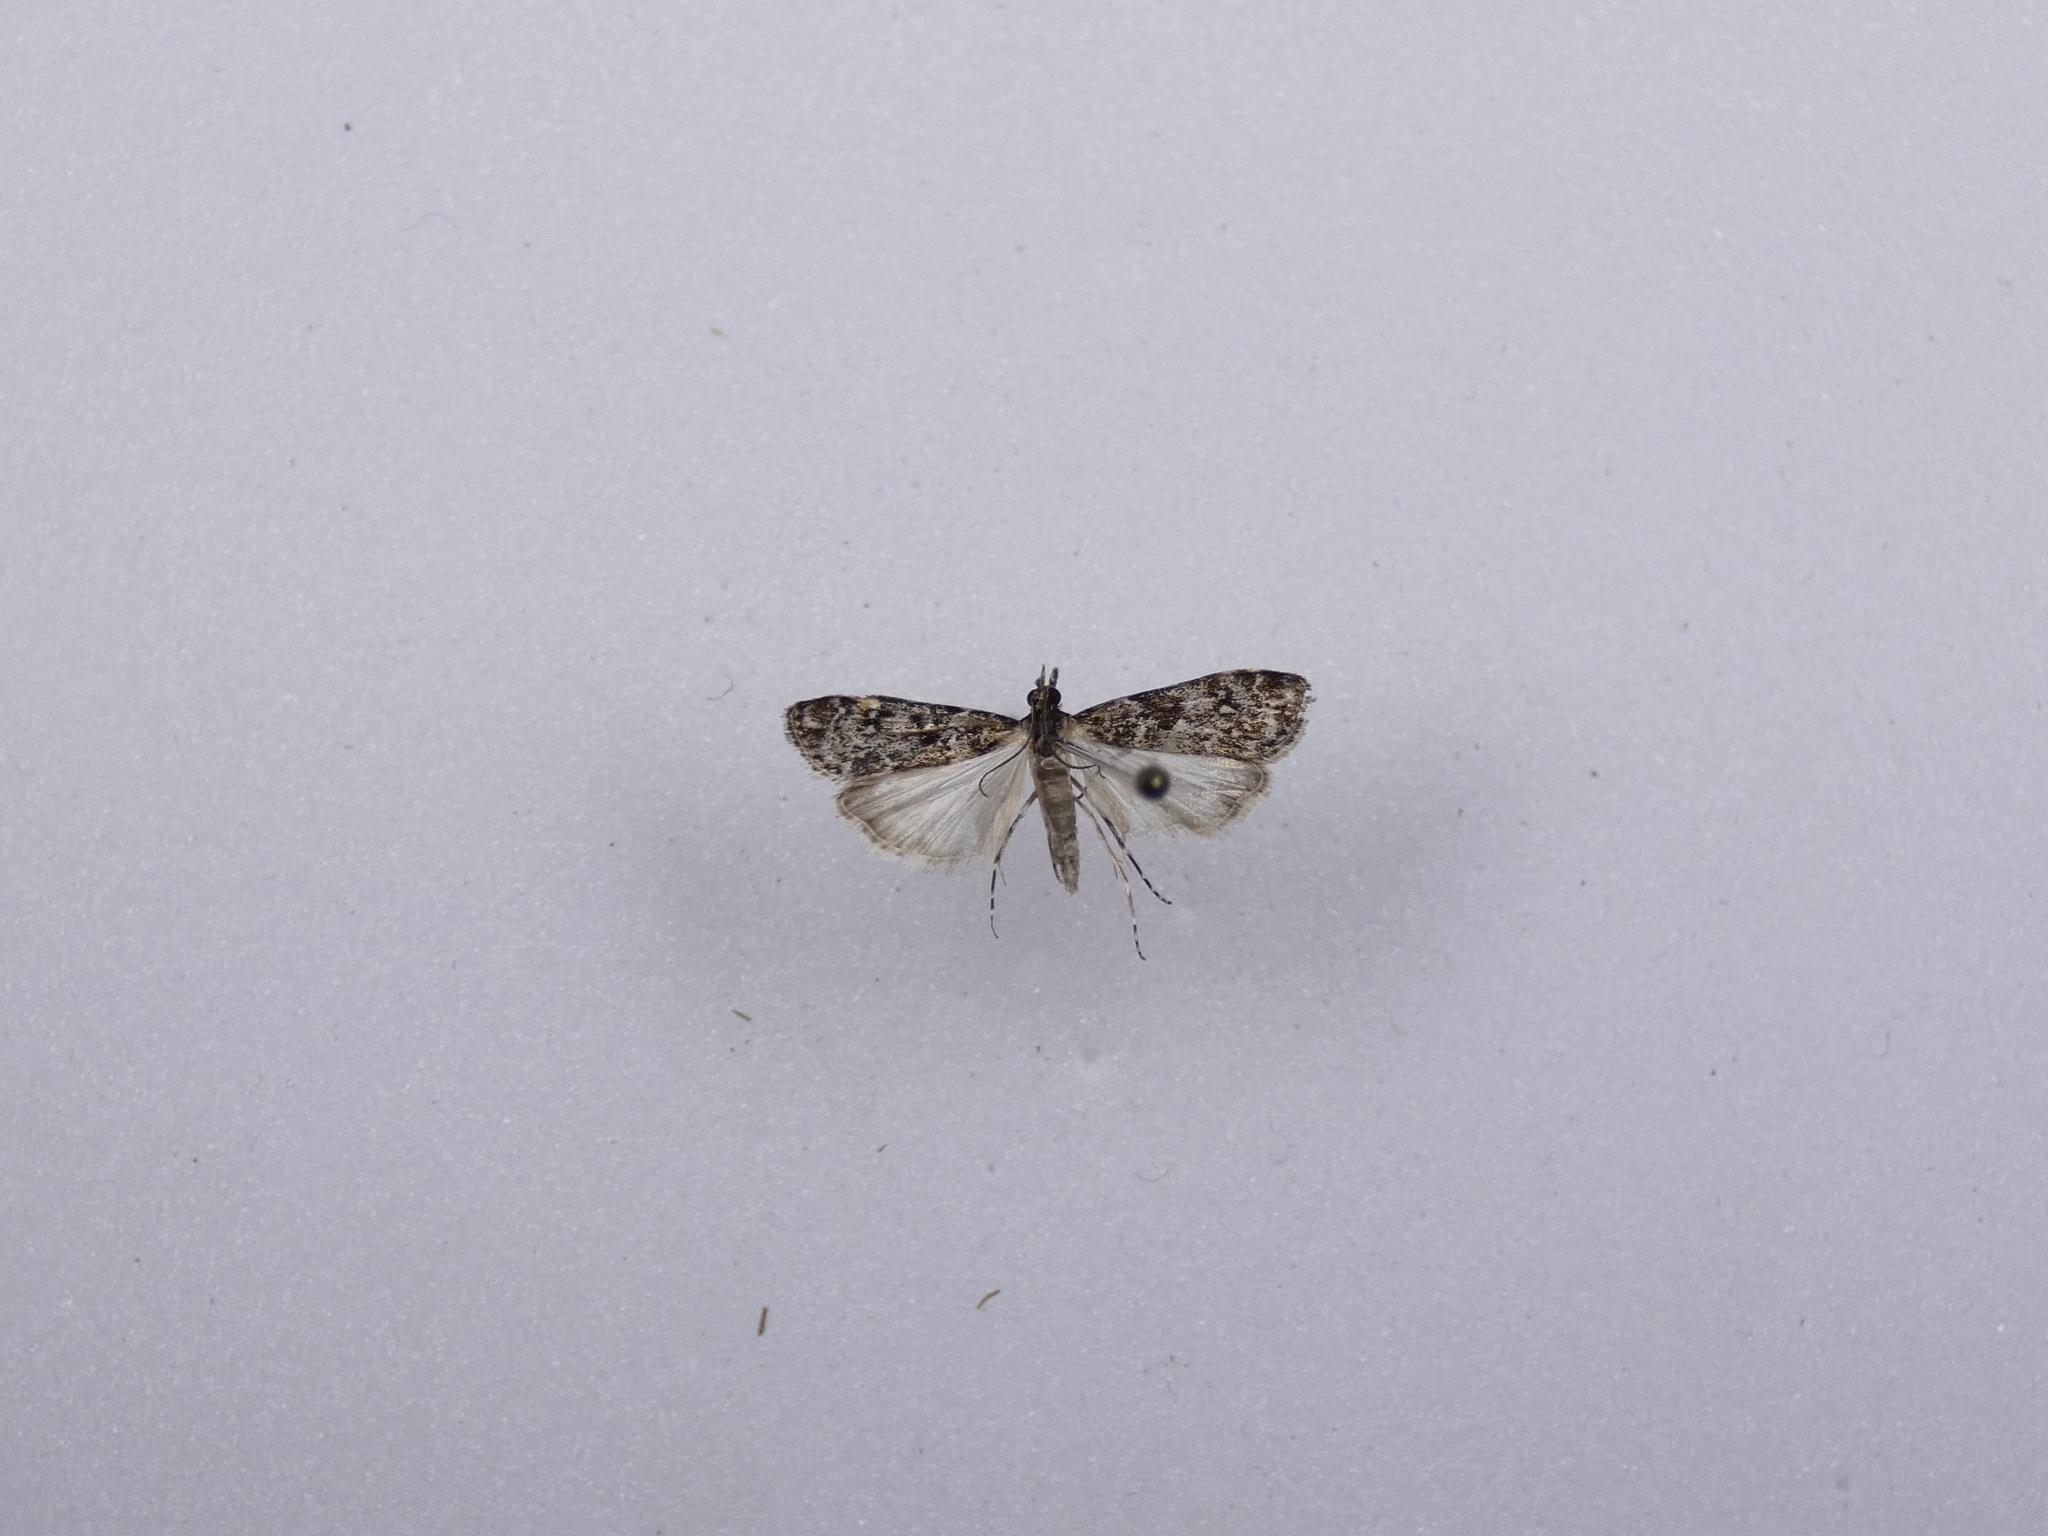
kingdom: Animalia
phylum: Arthropoda
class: Insecta
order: Lepidoptera
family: Crambidae
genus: Eudonia
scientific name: Eudonia philerga
